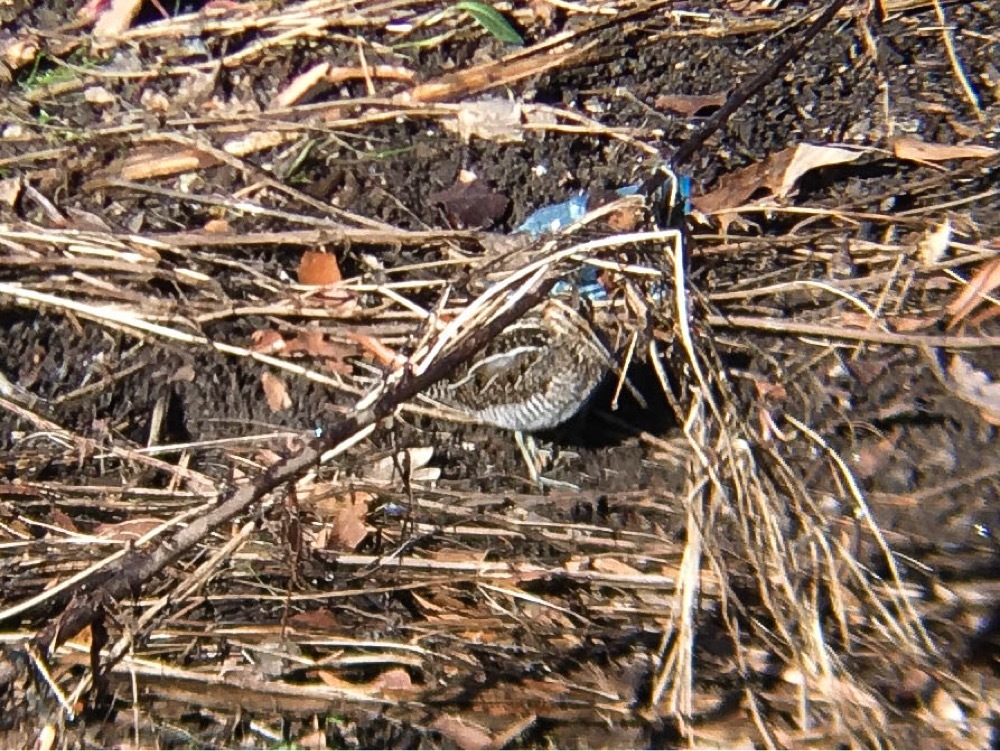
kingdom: Animalia
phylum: Chordata
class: Aves
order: Charadriiformes
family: Scolopacidae
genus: Gallinago
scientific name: Gallinago delicata
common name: Wilson's snipe
